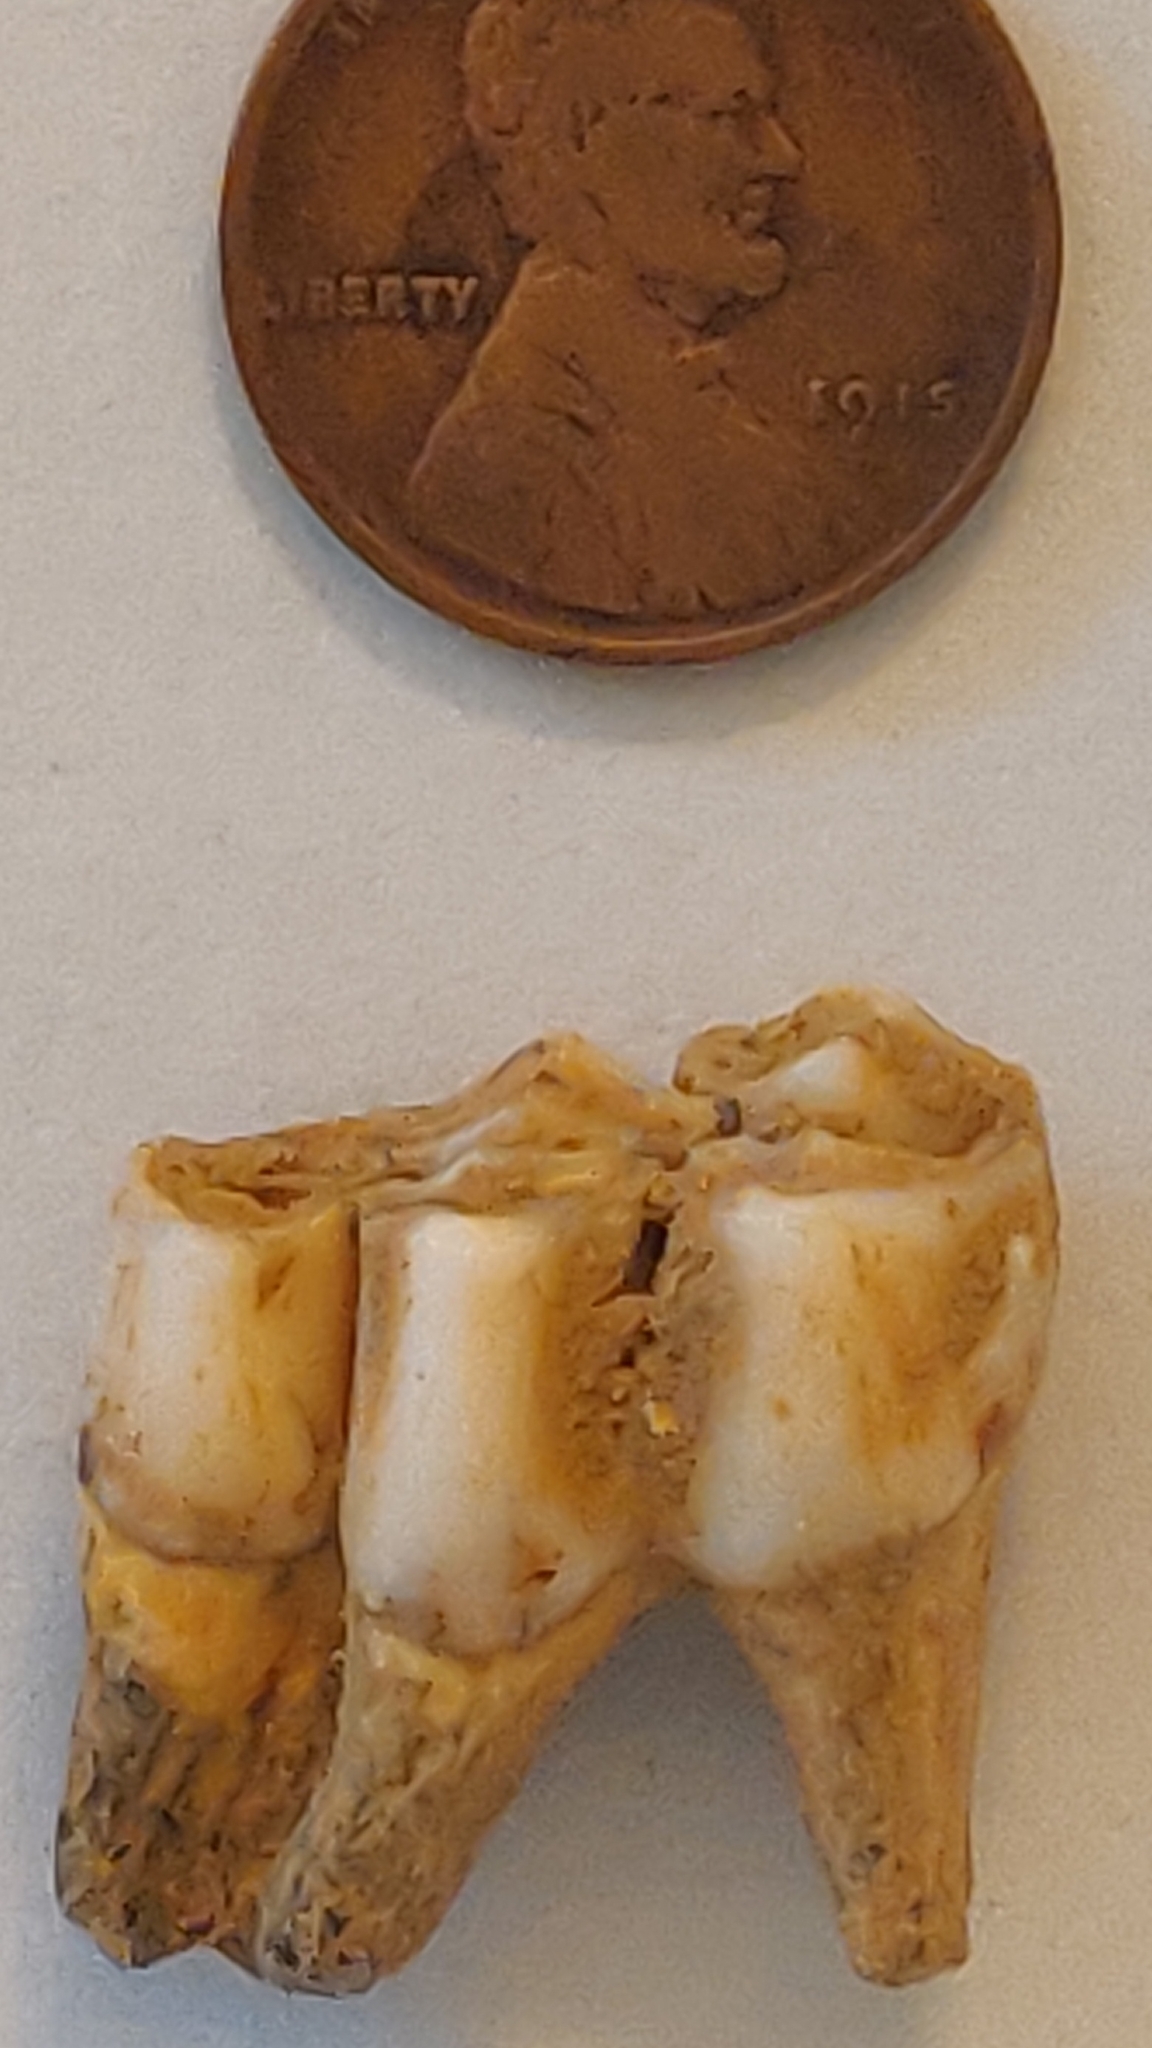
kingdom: Animalia
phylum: Chordata
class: Mammalia
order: Artiodactyla
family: Cervidae
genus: Odocoileus
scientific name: Odocoileus virginianus
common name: White-tailed deer
